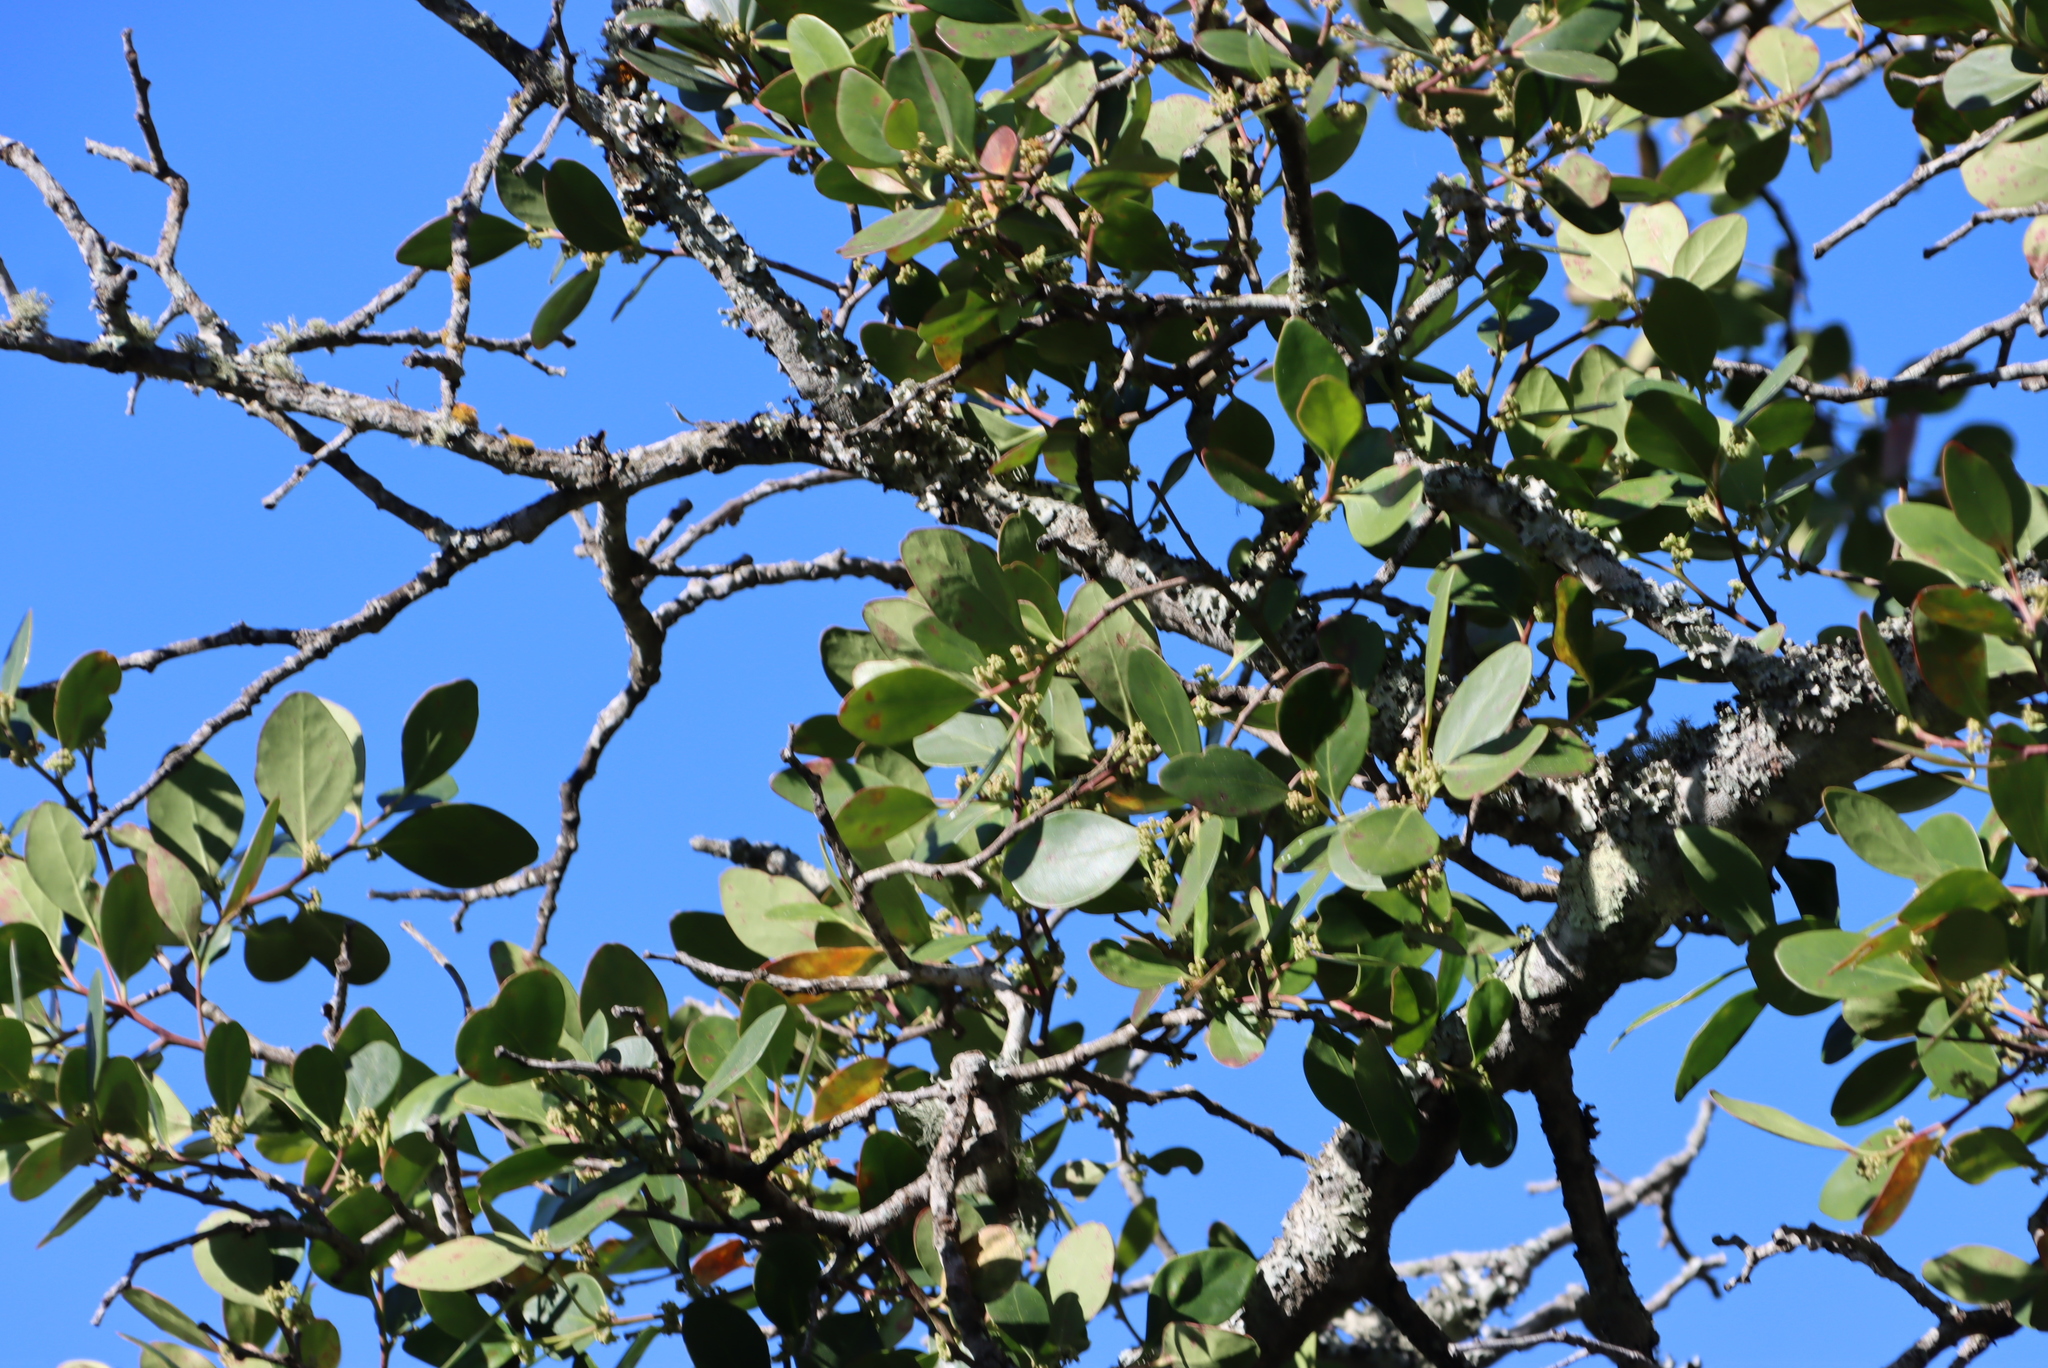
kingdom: Plantae
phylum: Tracheophyta
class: Magnoliopsida
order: Celastrales
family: Celastraceae
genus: Pterocelastrus
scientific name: Pterocelastrus tricuspidatus
